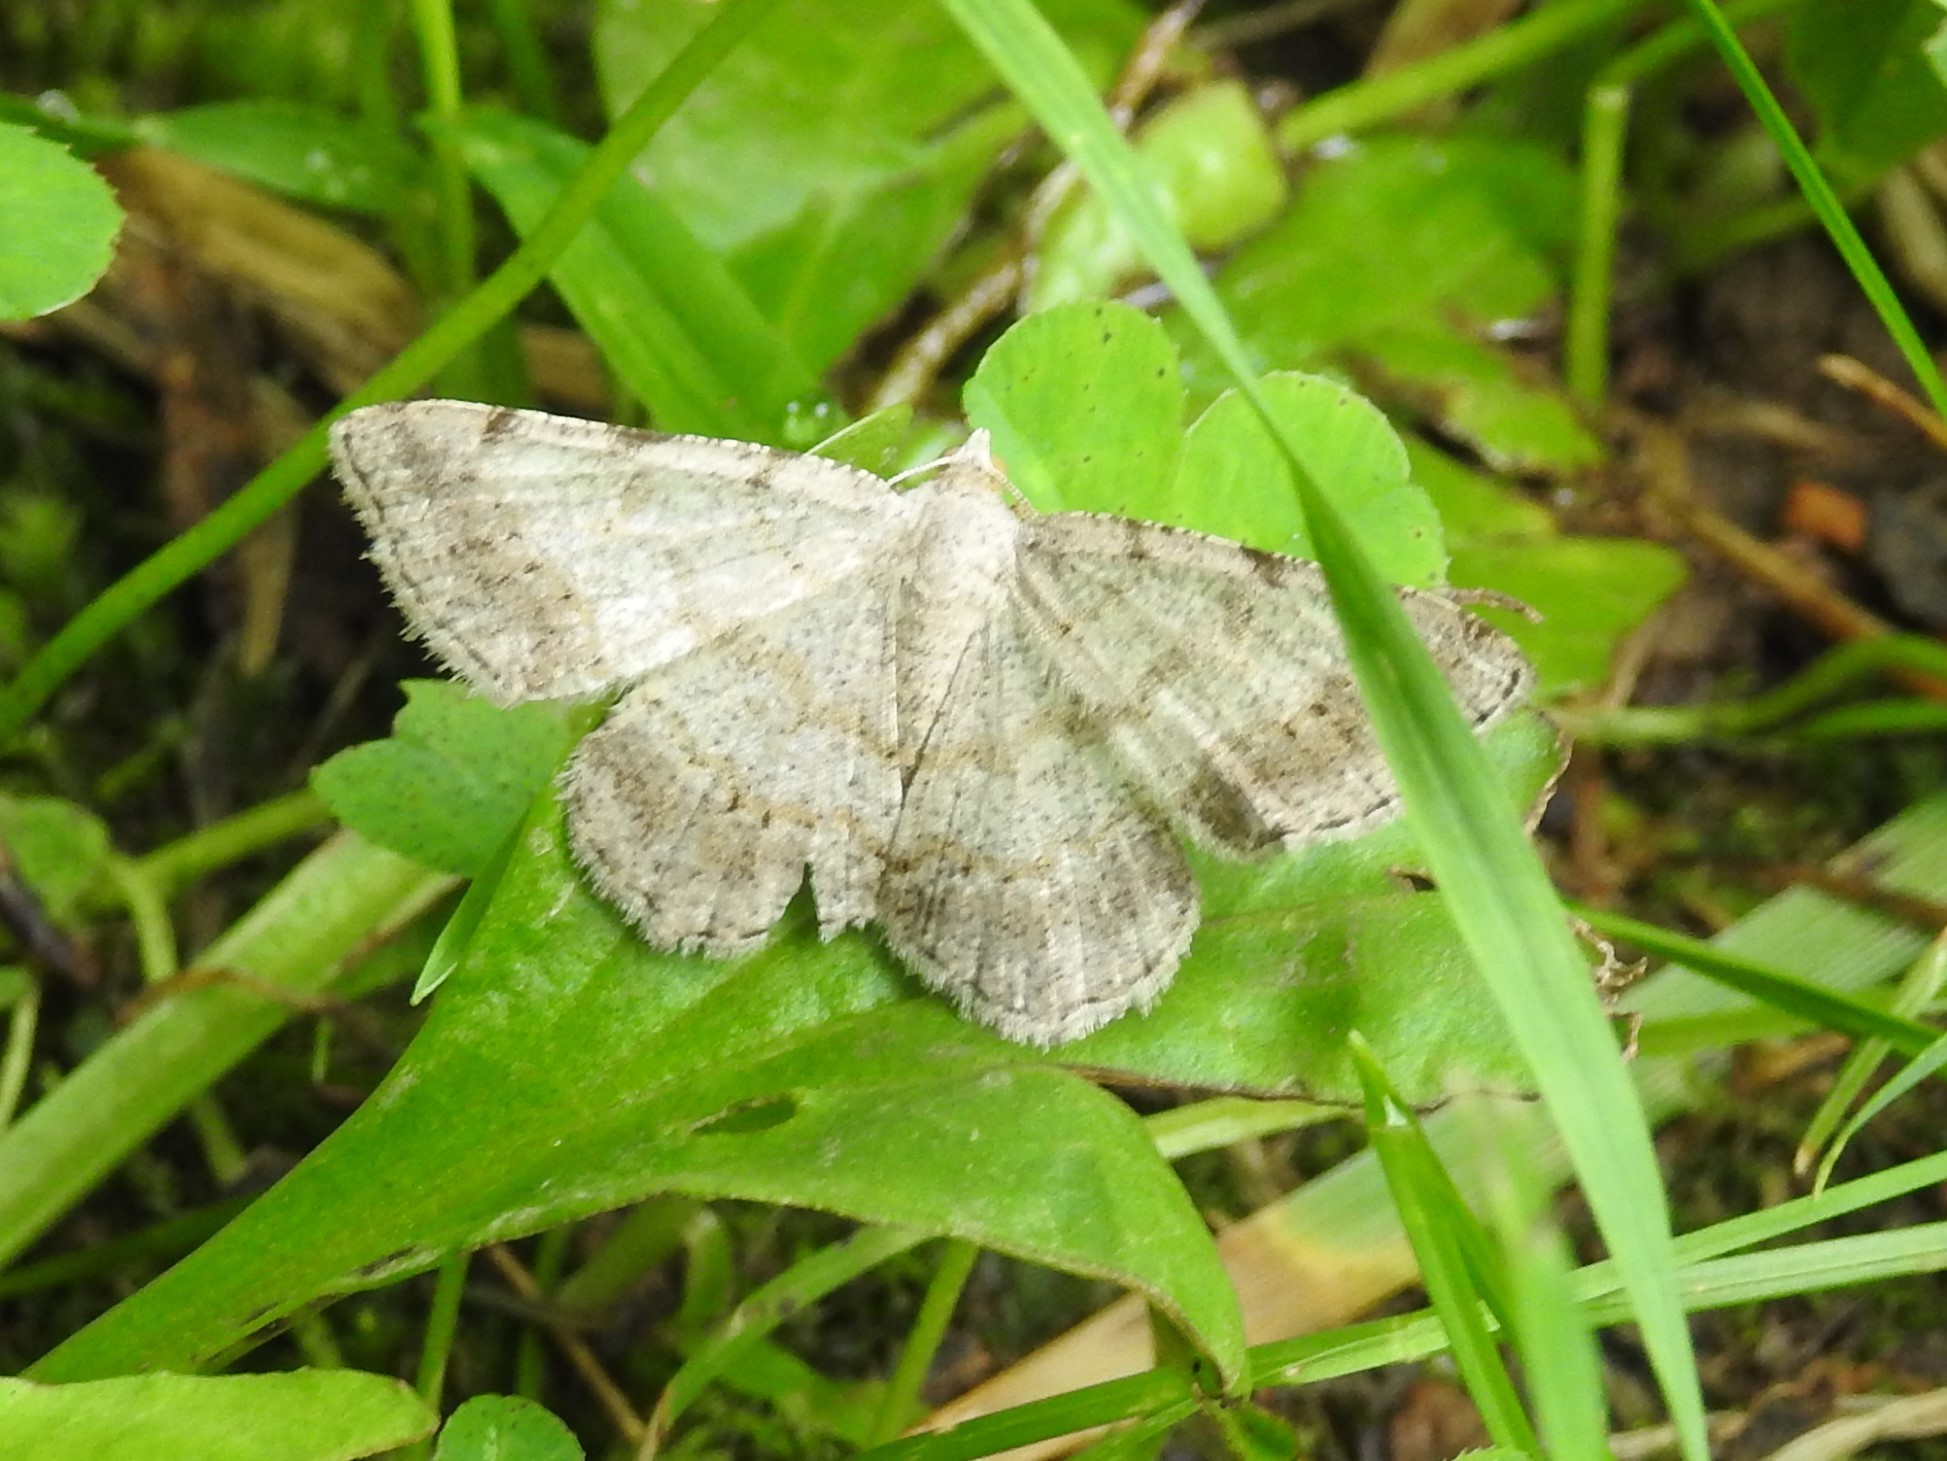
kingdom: Animalia
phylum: Arthropoda
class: Insecta
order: Lepidoptera
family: Geometridae
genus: Digrammia
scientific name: Digrammia ocellinata
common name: Faint-spotted angle
